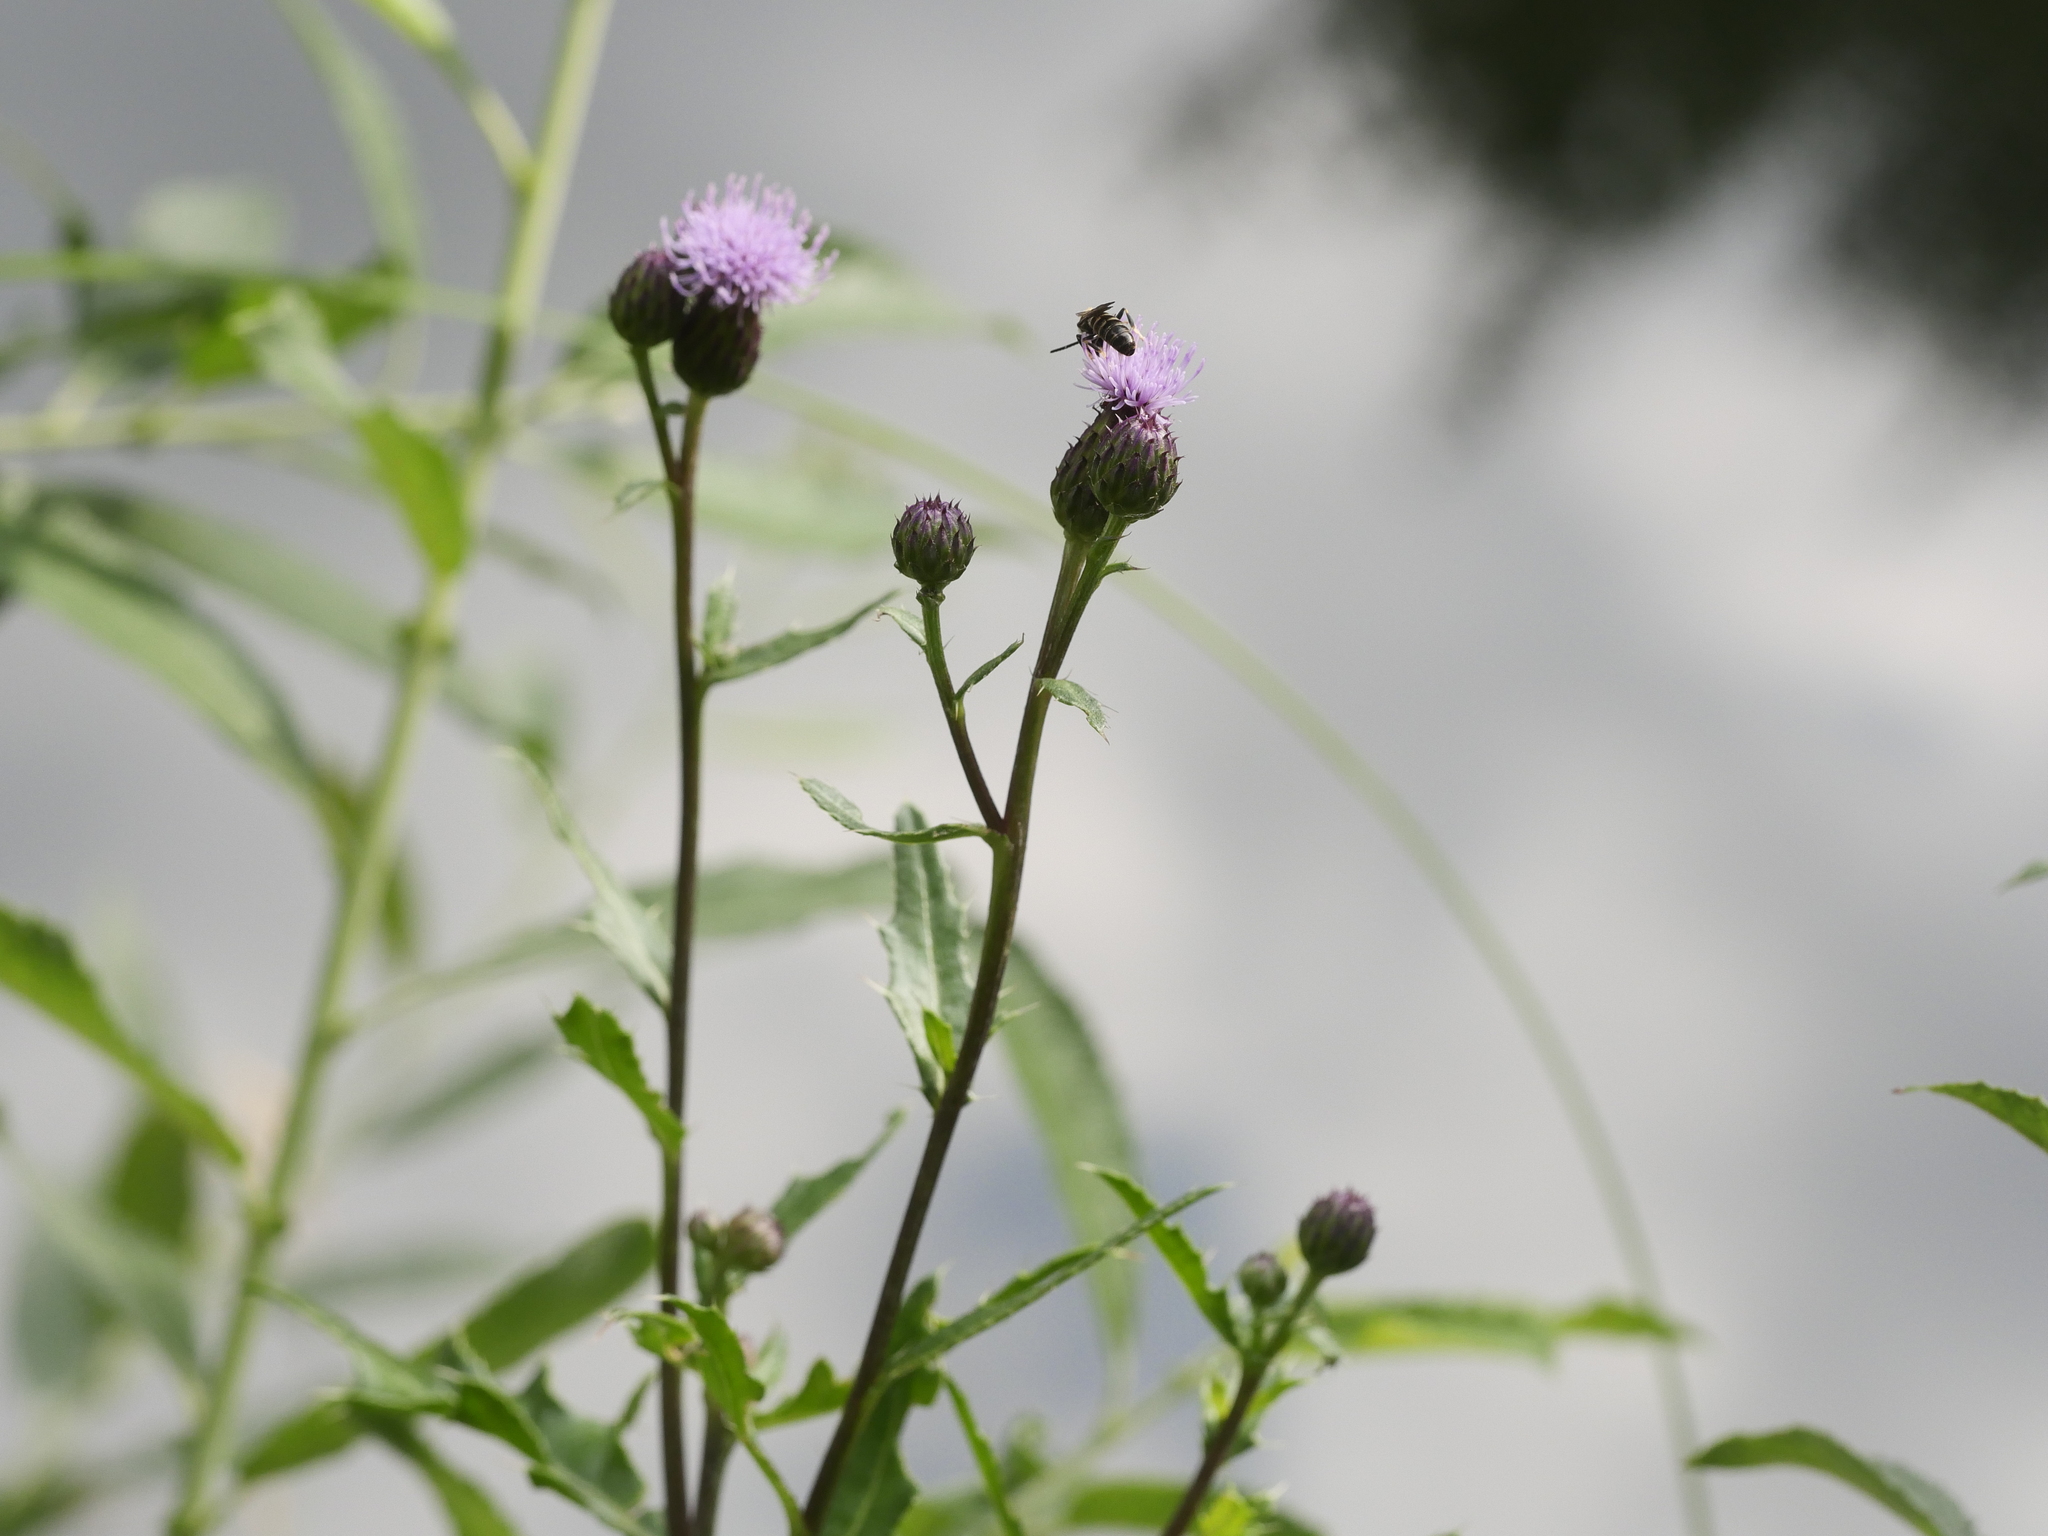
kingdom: Plantae
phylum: Tracheophyta
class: Magnoliopsida
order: Asterales
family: Asteraceae
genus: Cirsium
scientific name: Cirsium arvense
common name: Creeping thistle
